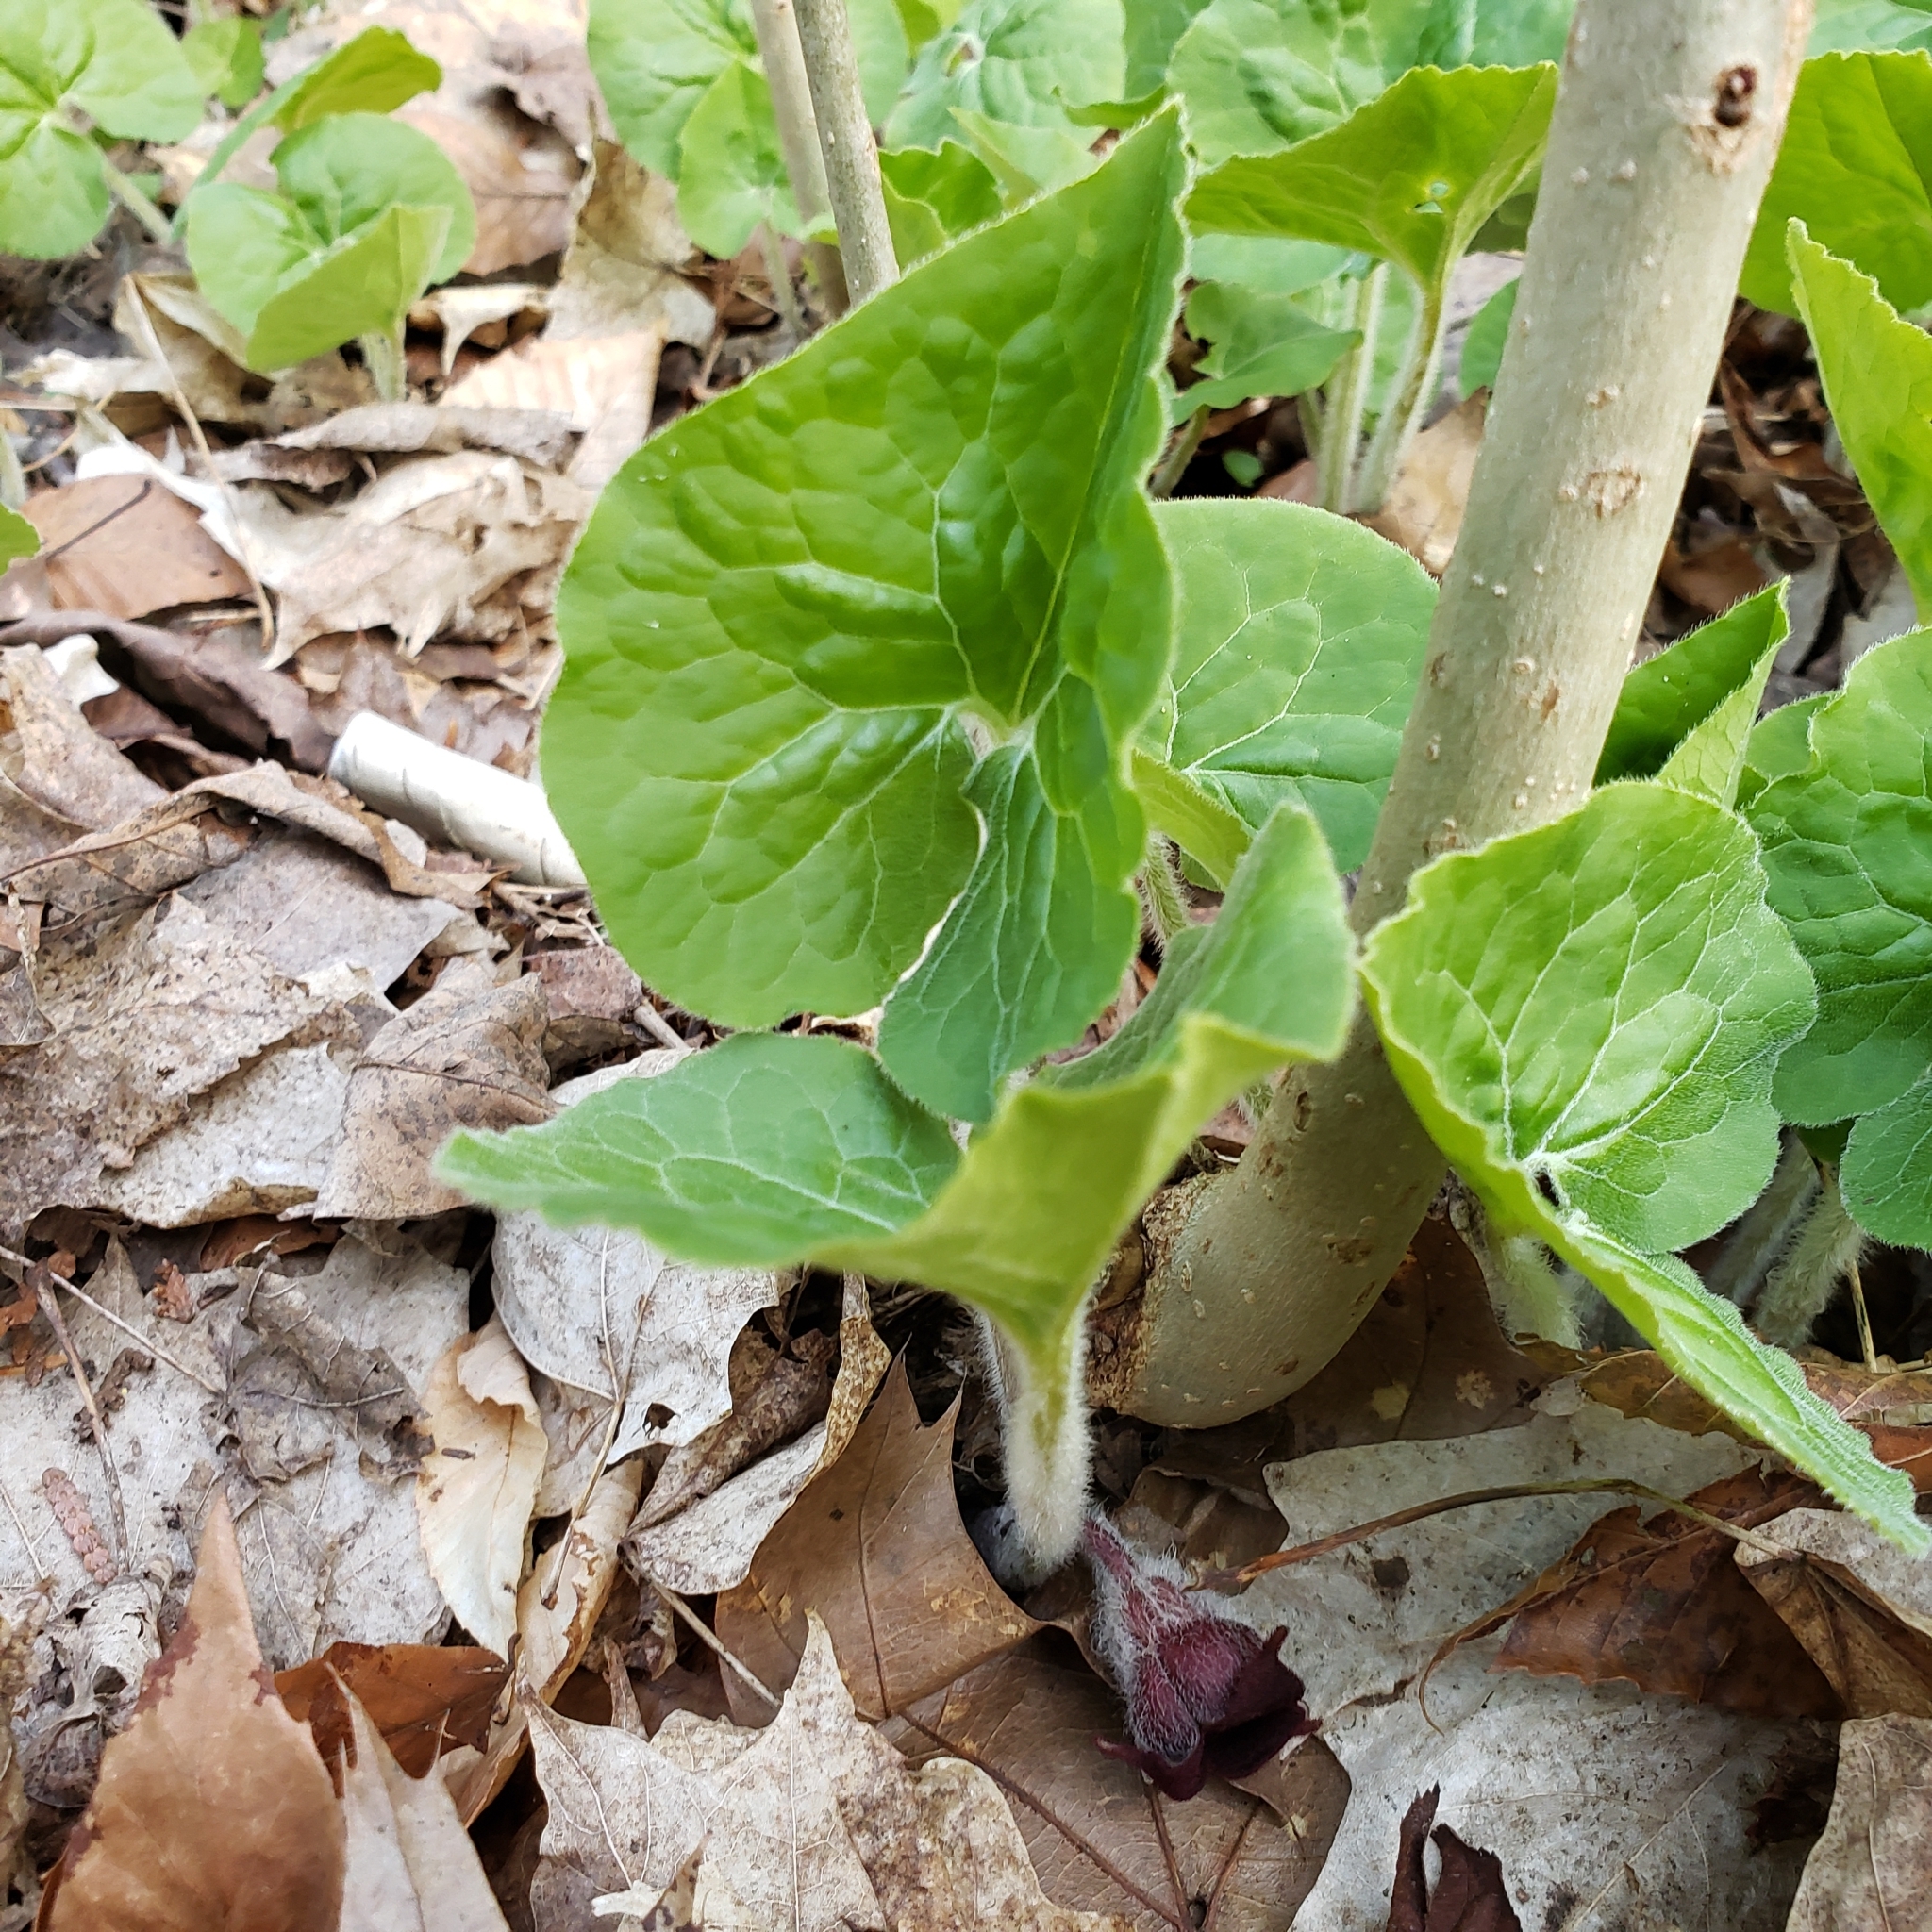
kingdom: Plantae
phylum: Tracheophyta
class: Magnoliopsida
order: Piperales
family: Aristolochiaceae
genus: Asarum
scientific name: Asarum canadense
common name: Wild ginger
